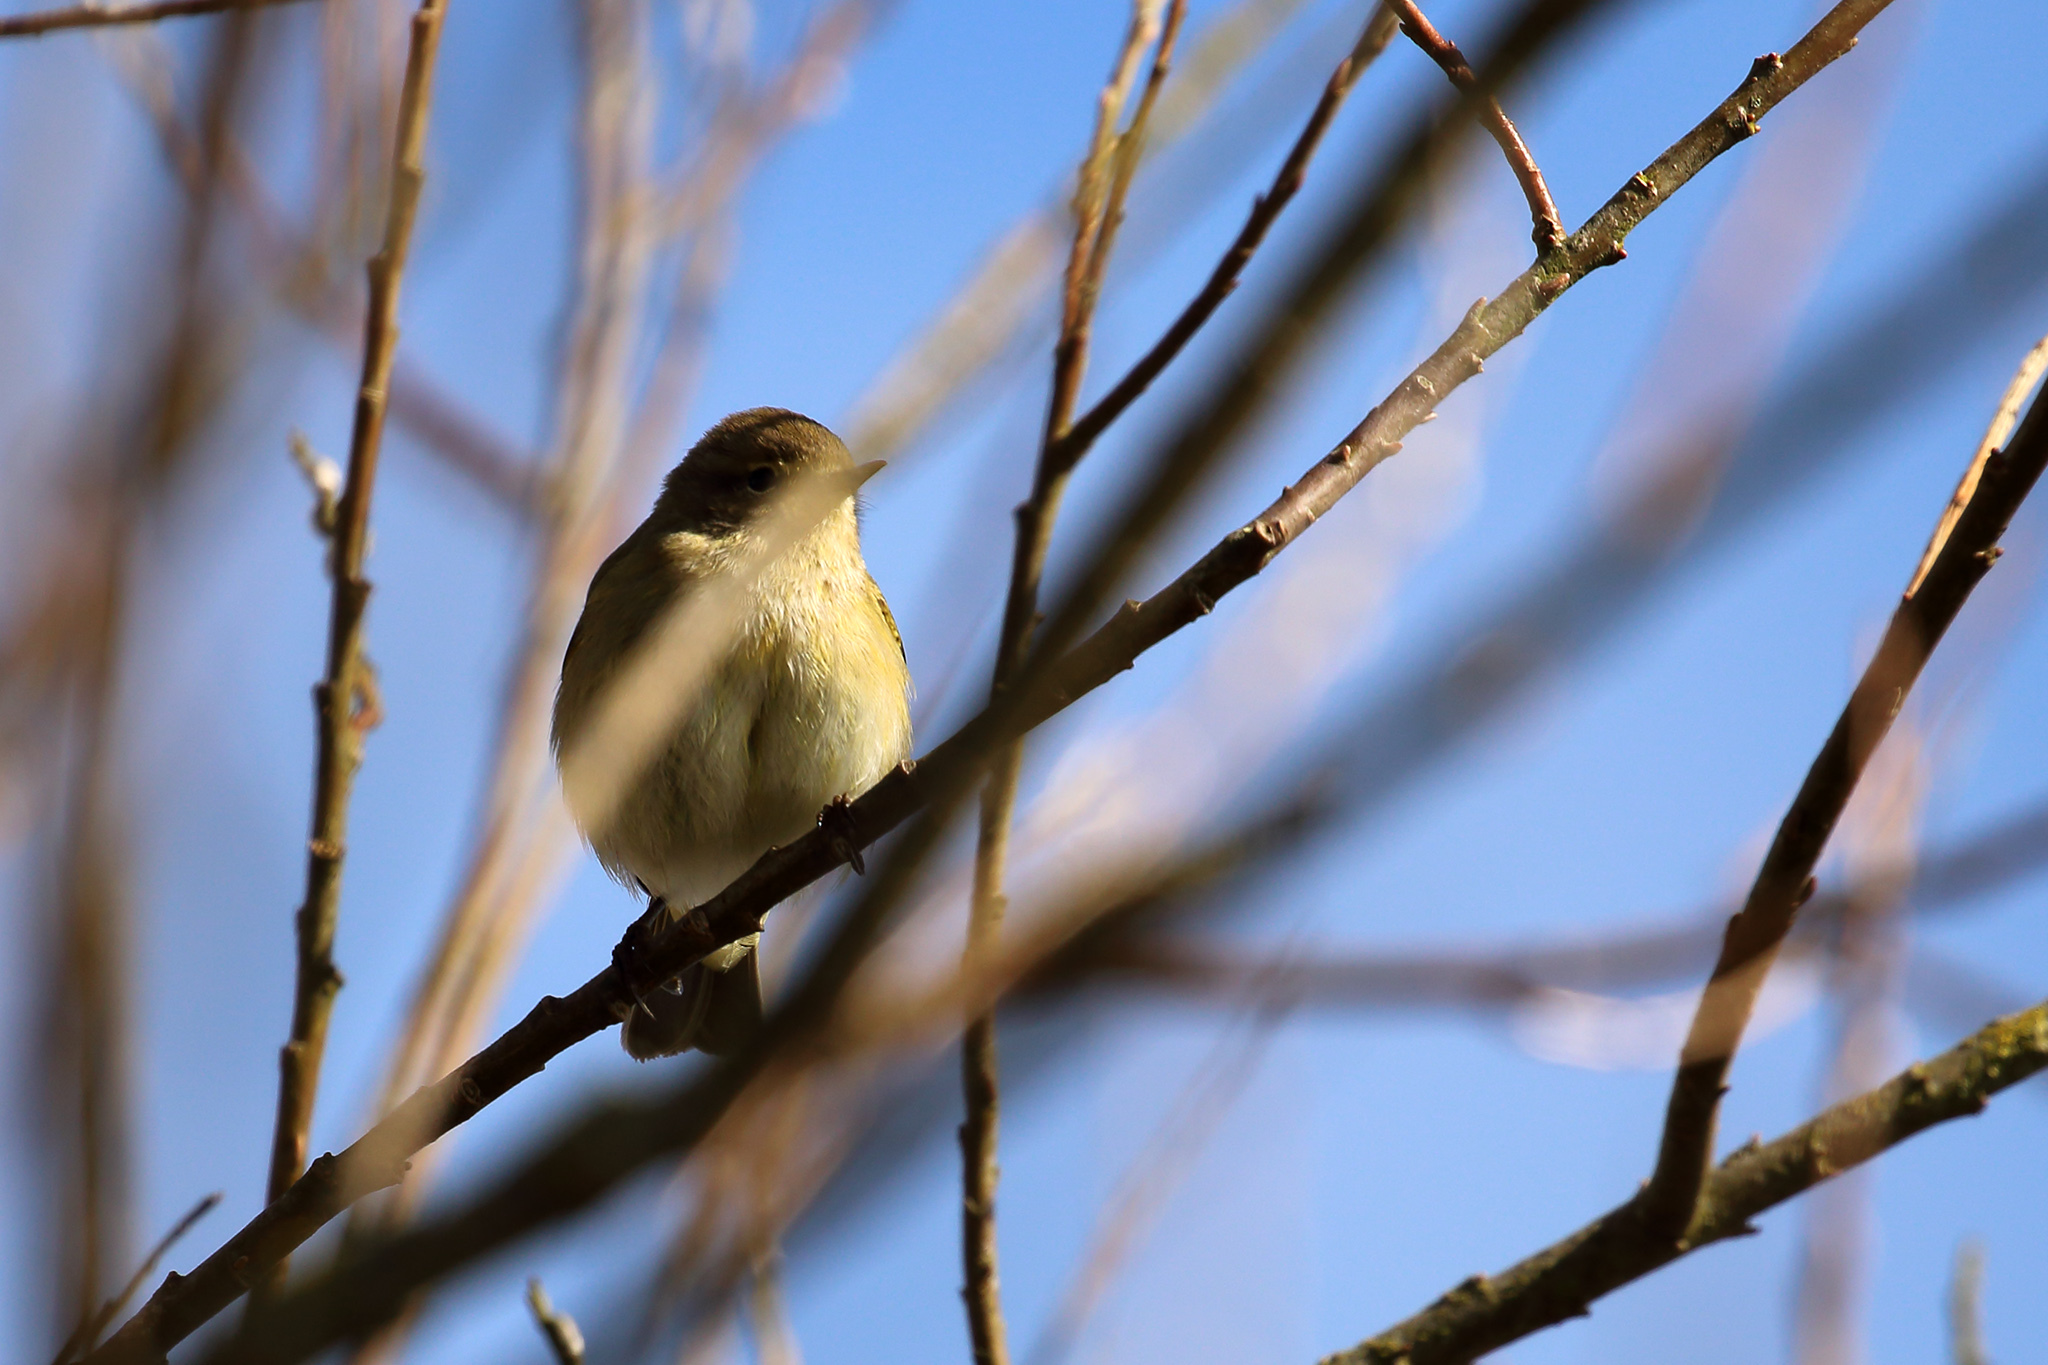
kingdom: Animalia
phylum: Chordata
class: Aves
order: Passeriformes
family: Phylloscopidae
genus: Phylloscopus
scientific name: Phylloscopus collybita
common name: Common chiffchaff
